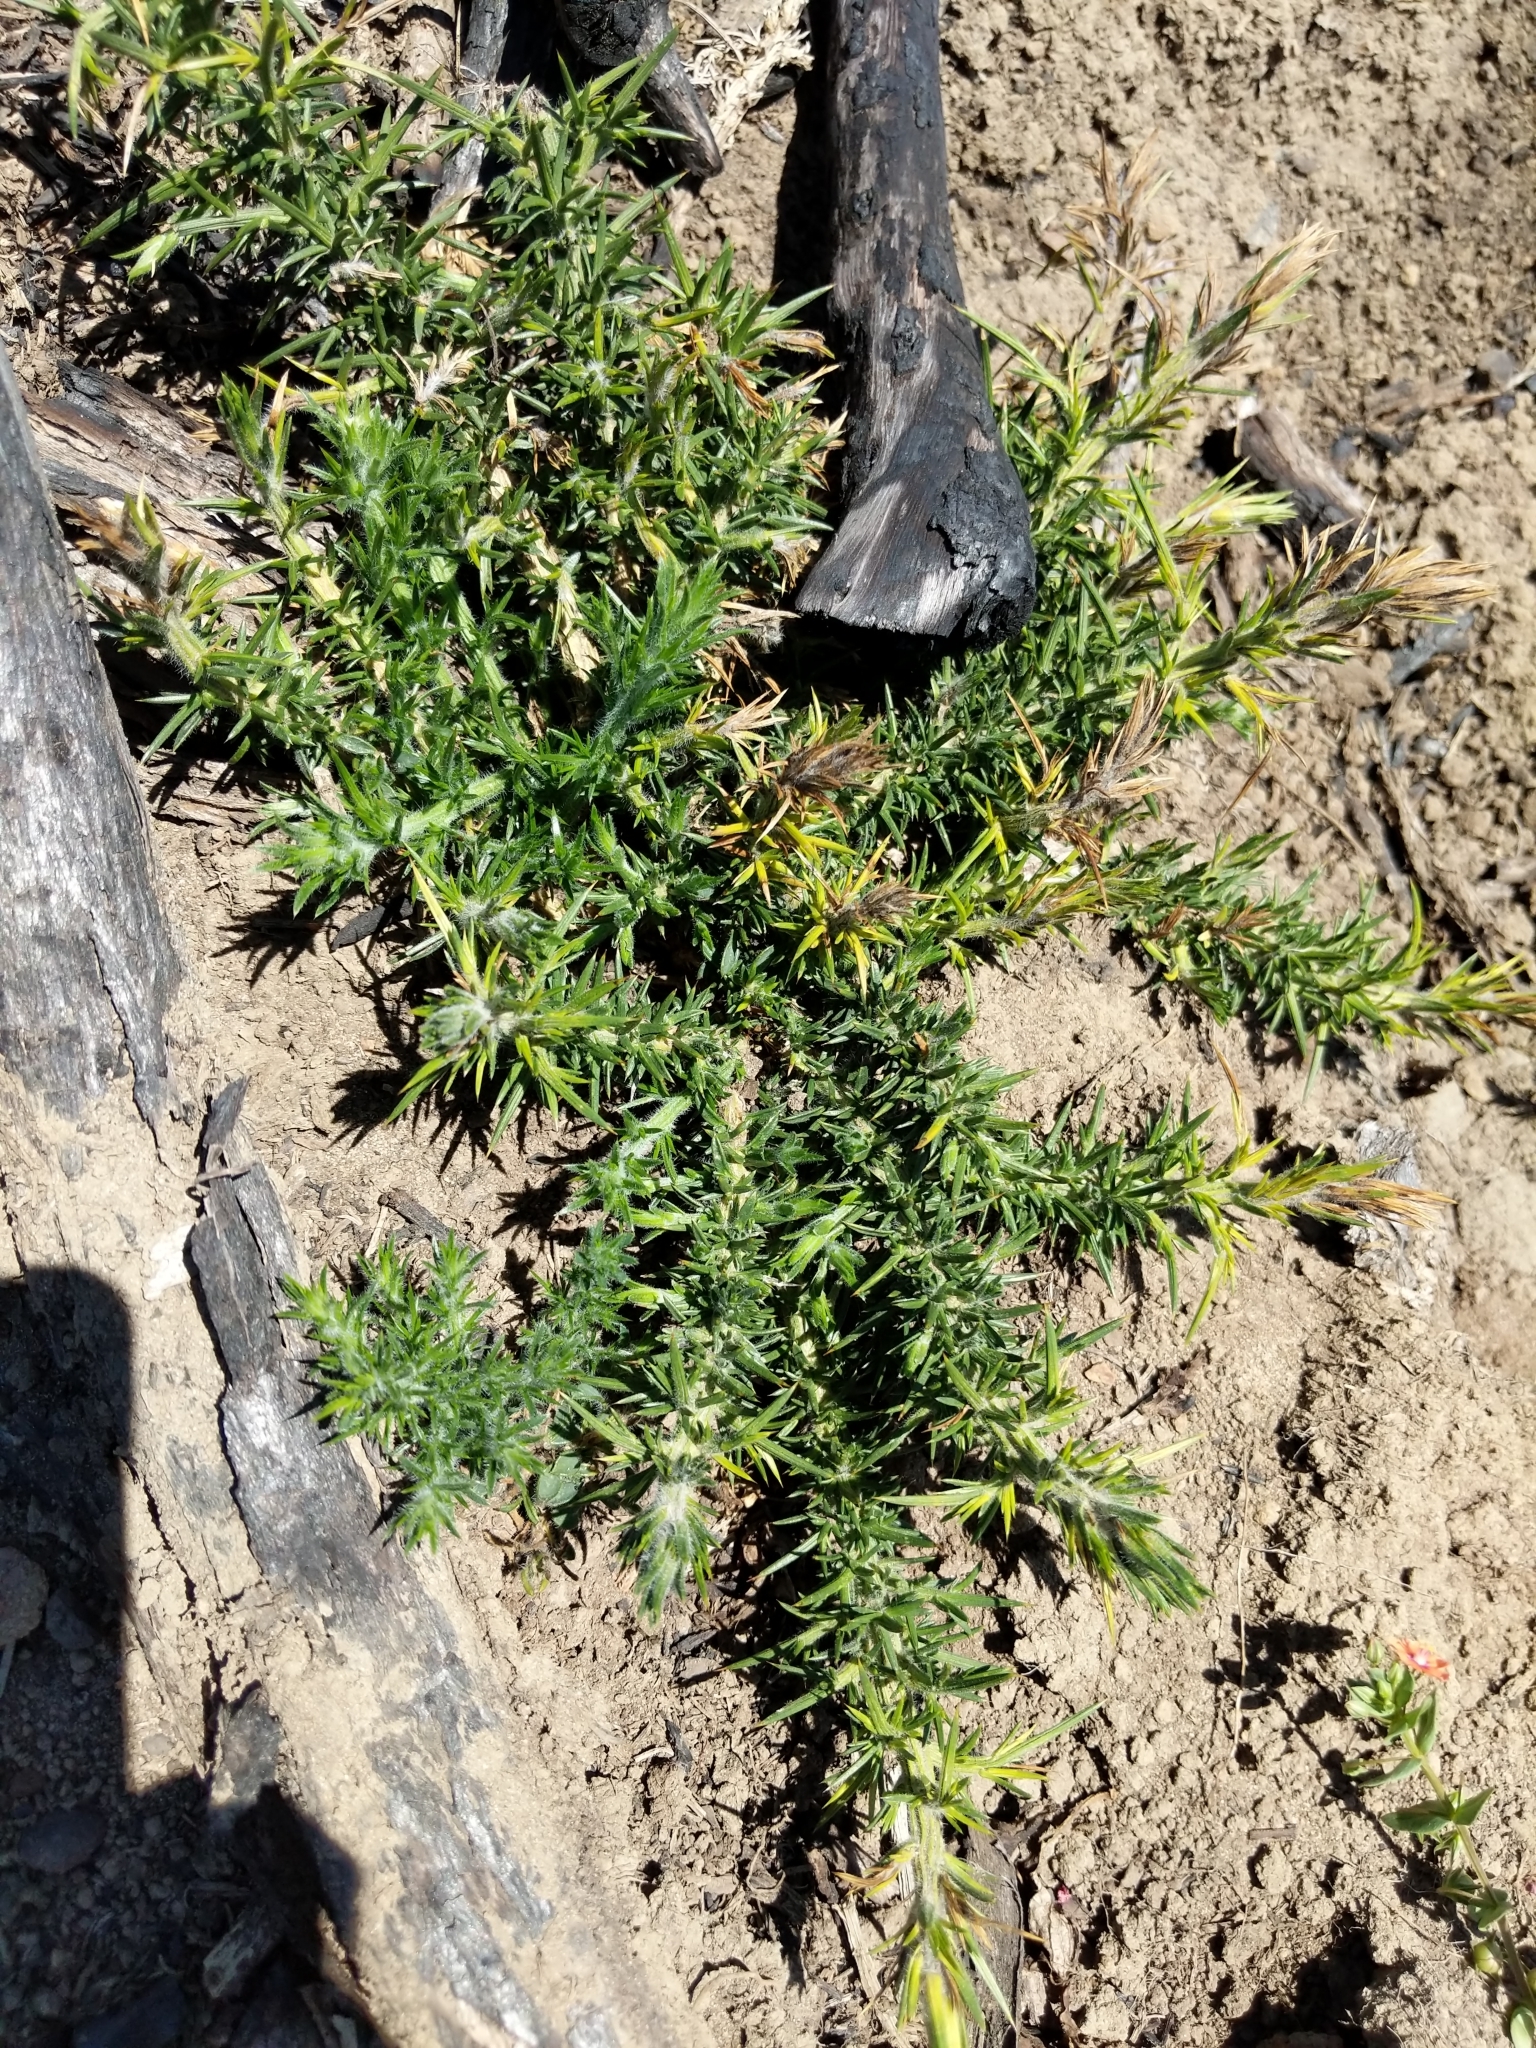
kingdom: Plantae
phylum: Tracheophyta
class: Magnoliopsida
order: Fabales
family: Fabaceae
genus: Ulex
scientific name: Ulex europaeus
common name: Common gorse
